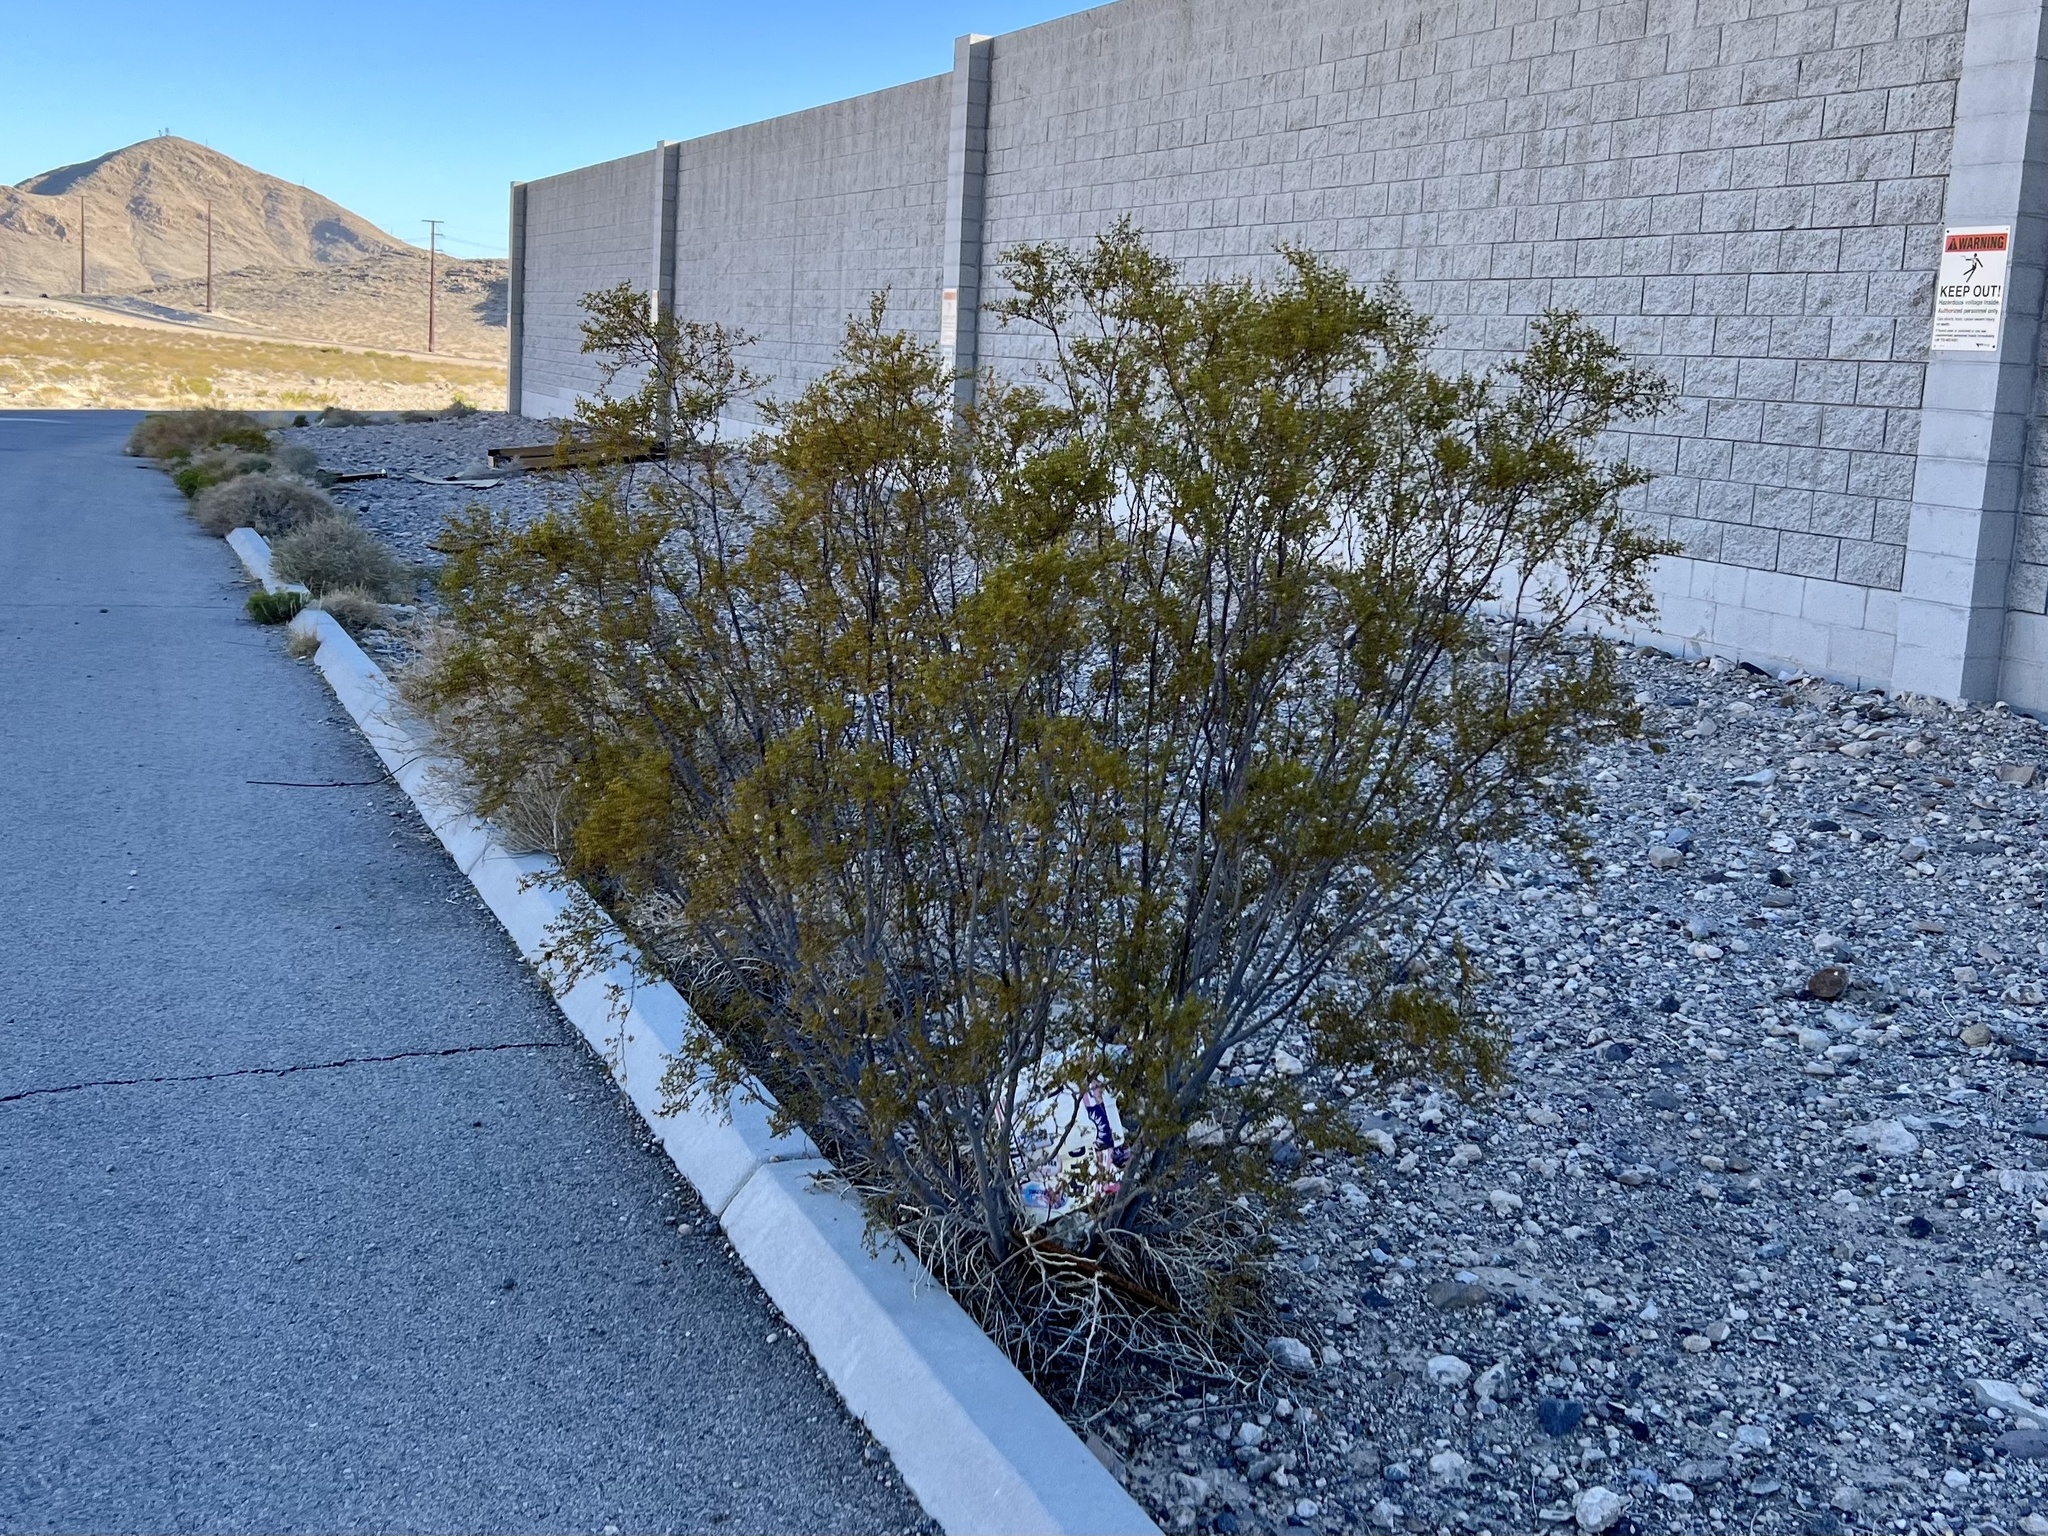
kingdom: Plantae
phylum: Tracheophyta
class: Magnoliopsida
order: Zygophyllales
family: Zygophyllaceae
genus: Larrea
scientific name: Larrea tridentata
